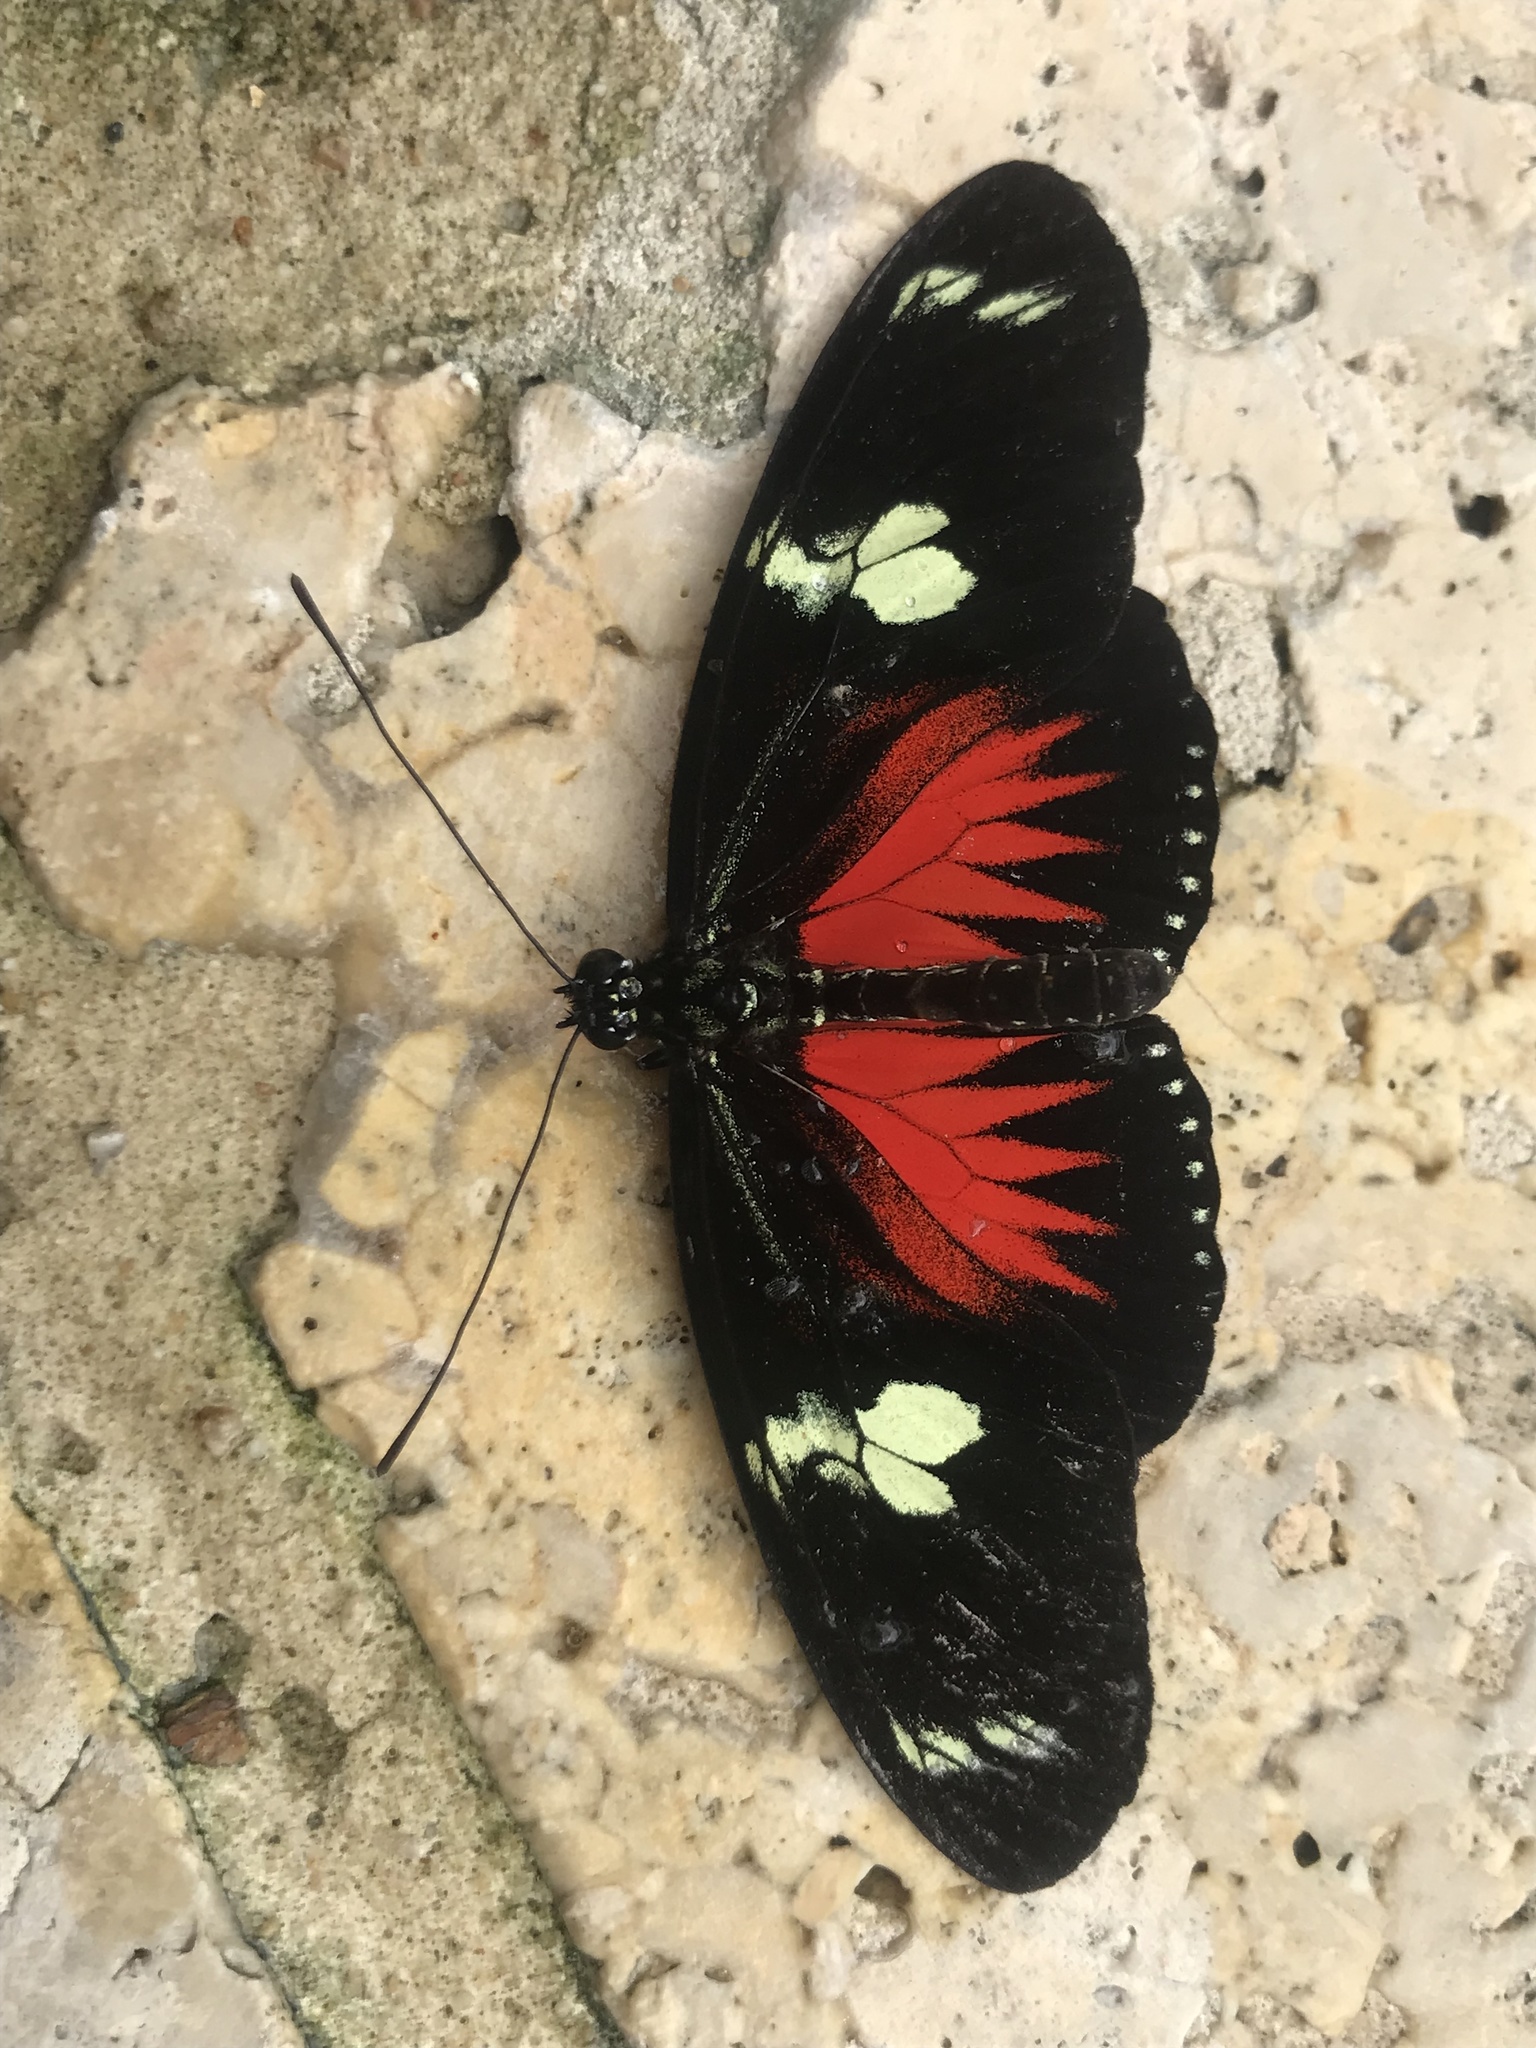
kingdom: Animalia
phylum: Arthropoda
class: Insecta
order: Lepidoptera
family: Nymphalidae
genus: Heliconius
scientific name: Heliconius doris
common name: Doris longwing
